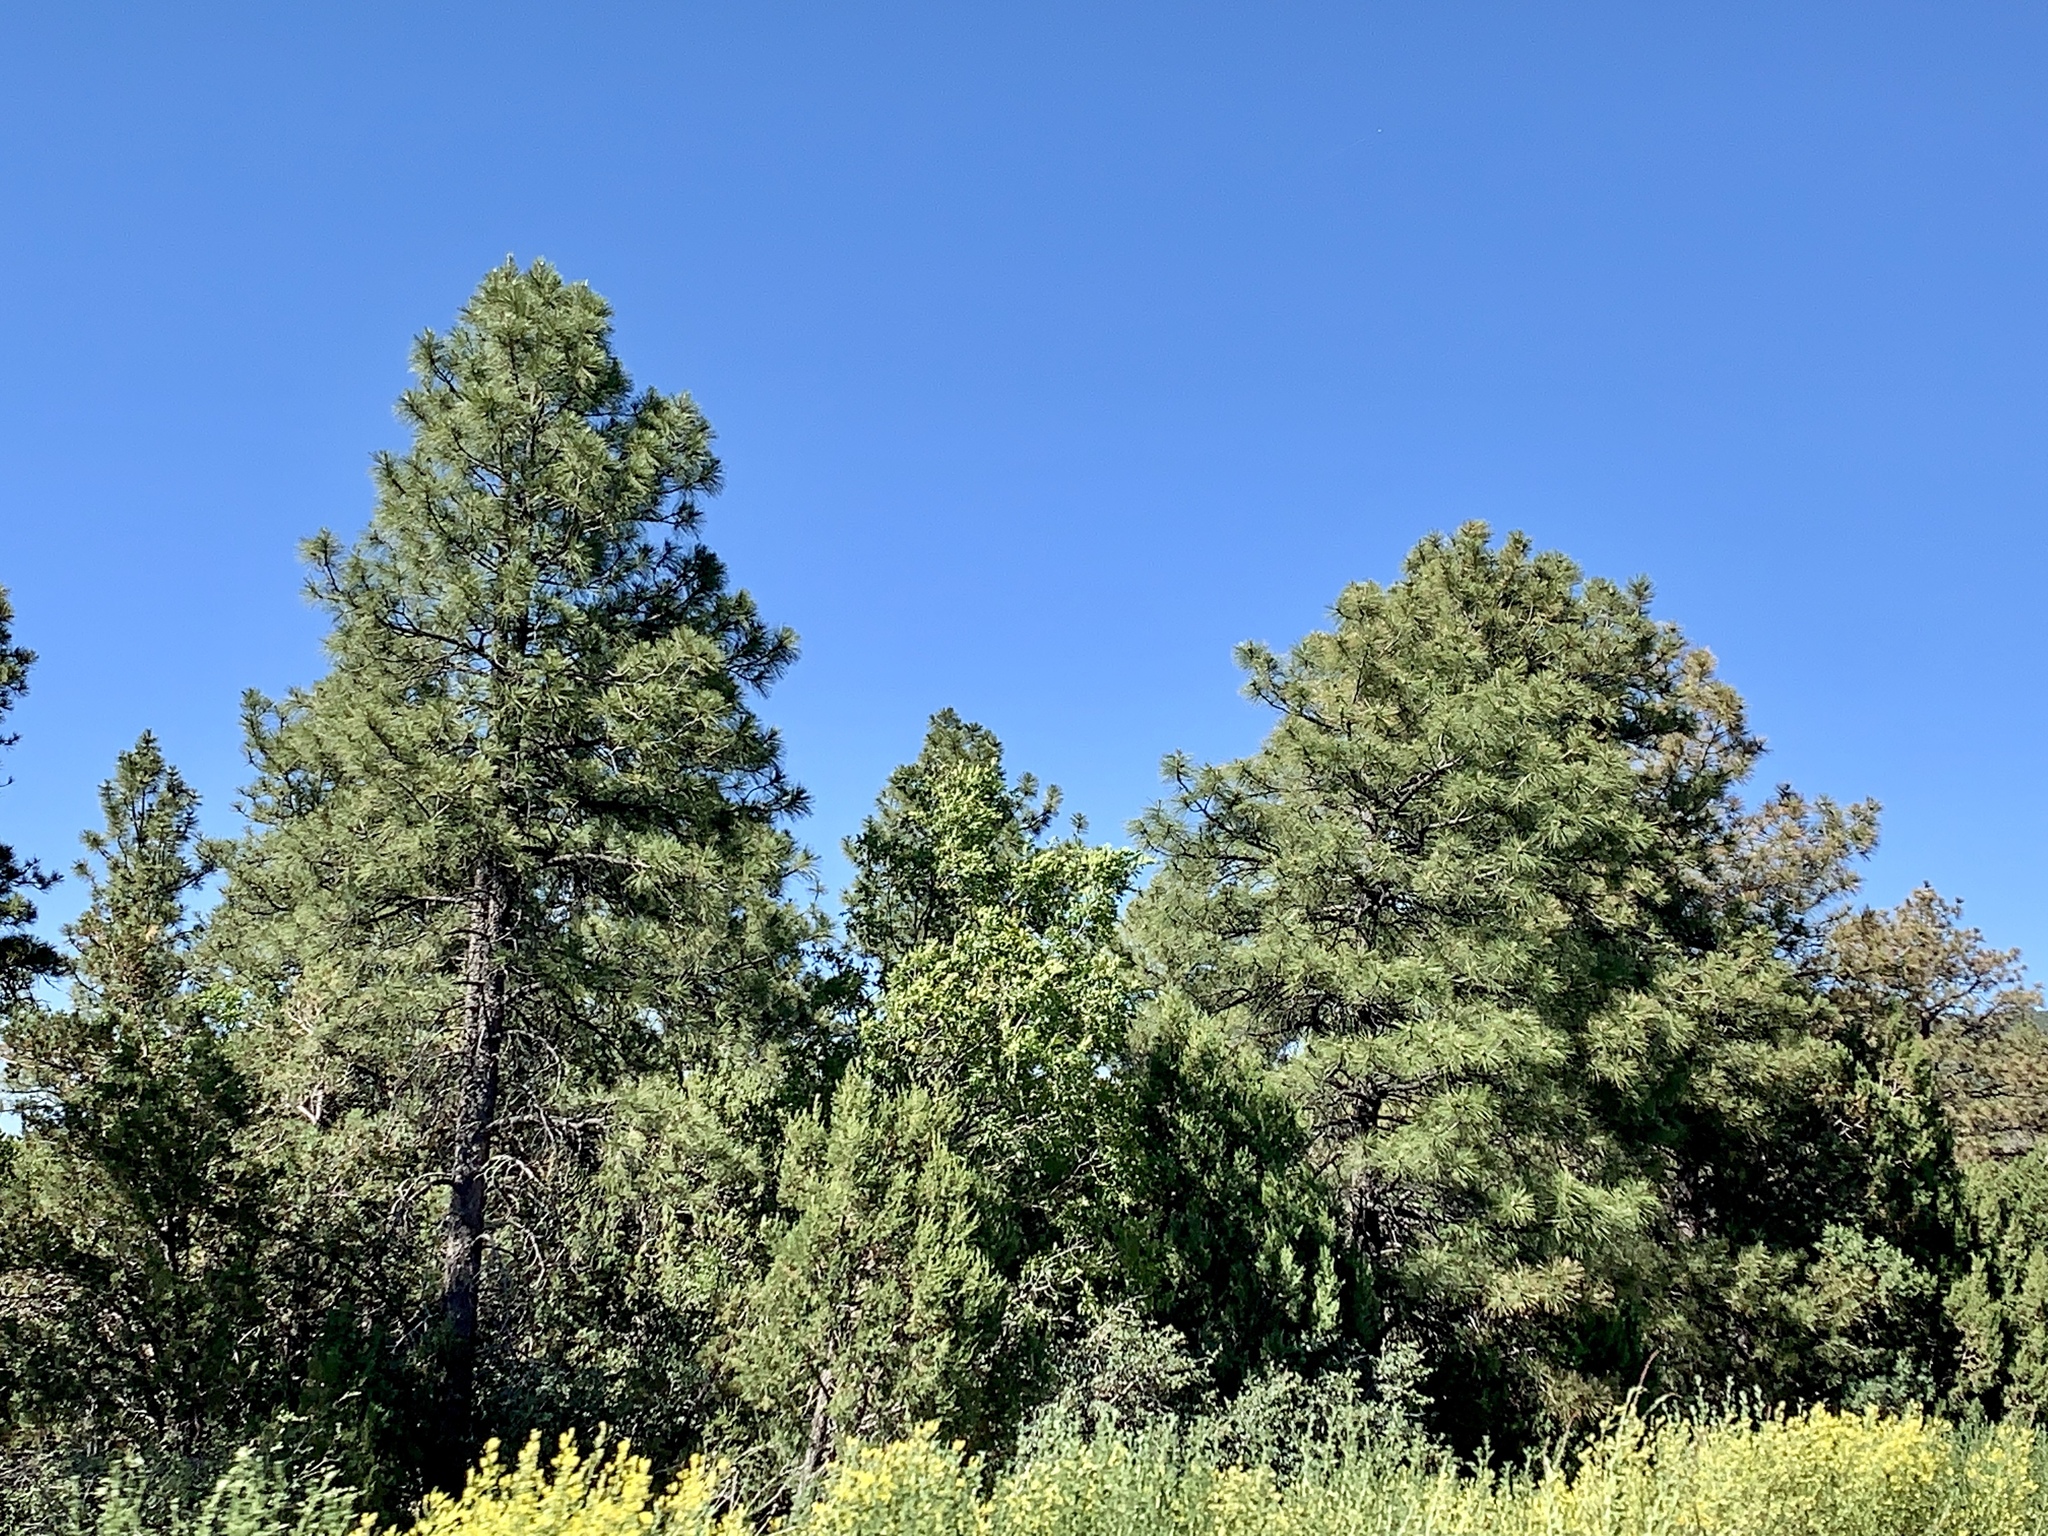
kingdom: Plantae
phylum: Tracheophyta
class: Pinopsida
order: Pinales
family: Pinaceae
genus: Pinus
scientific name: Pinus ponderosa
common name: Western yellow-pine
